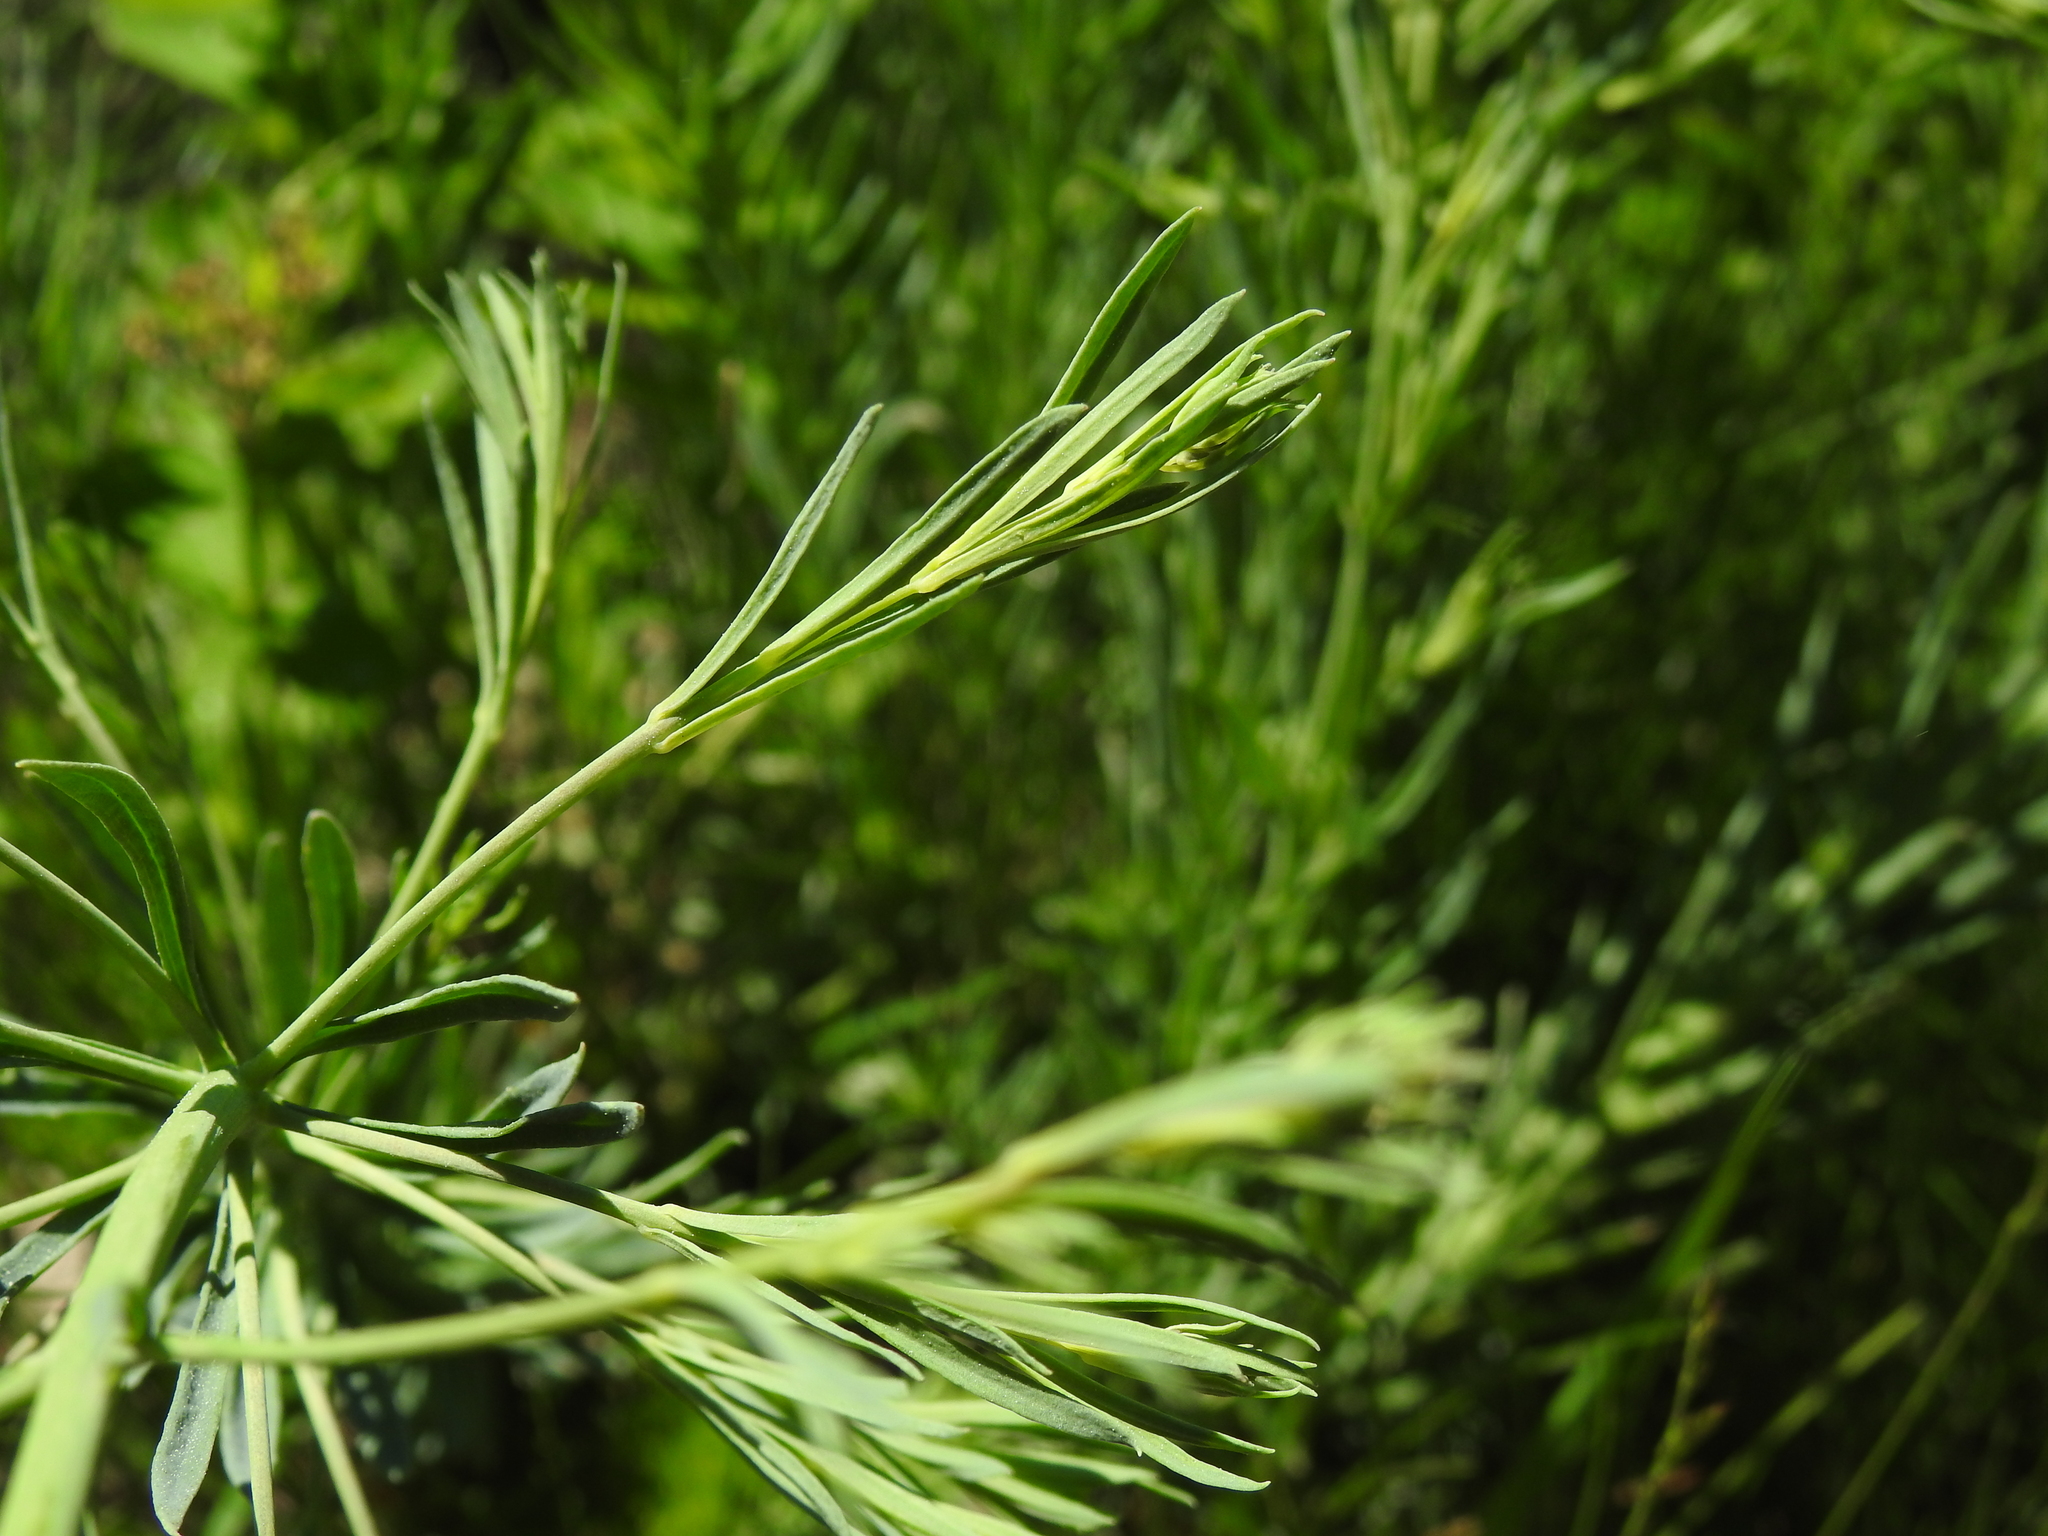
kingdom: Plantae
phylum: Tracheophyta
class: Magnoliopsida
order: Lamiales
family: Plantaginaceae
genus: Linaria
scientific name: Linaria repens
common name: Pale toadflax
